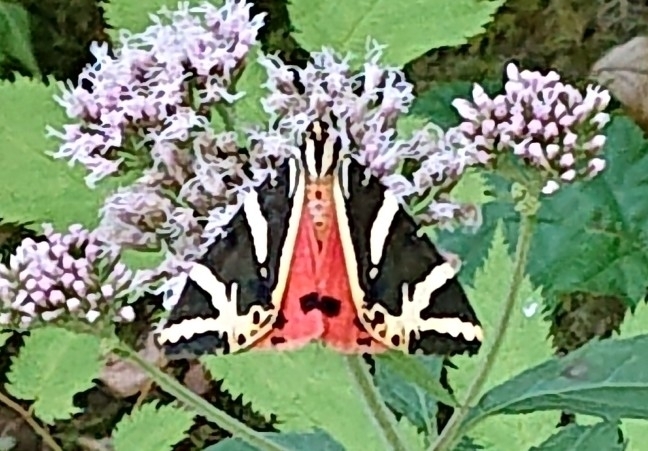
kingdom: Animalia
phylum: Arthropoda
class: Insecta
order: Lepidoptera
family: Erebidae
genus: Euplagia
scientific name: Euplagia quadripunctaria
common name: Jersey tiger
